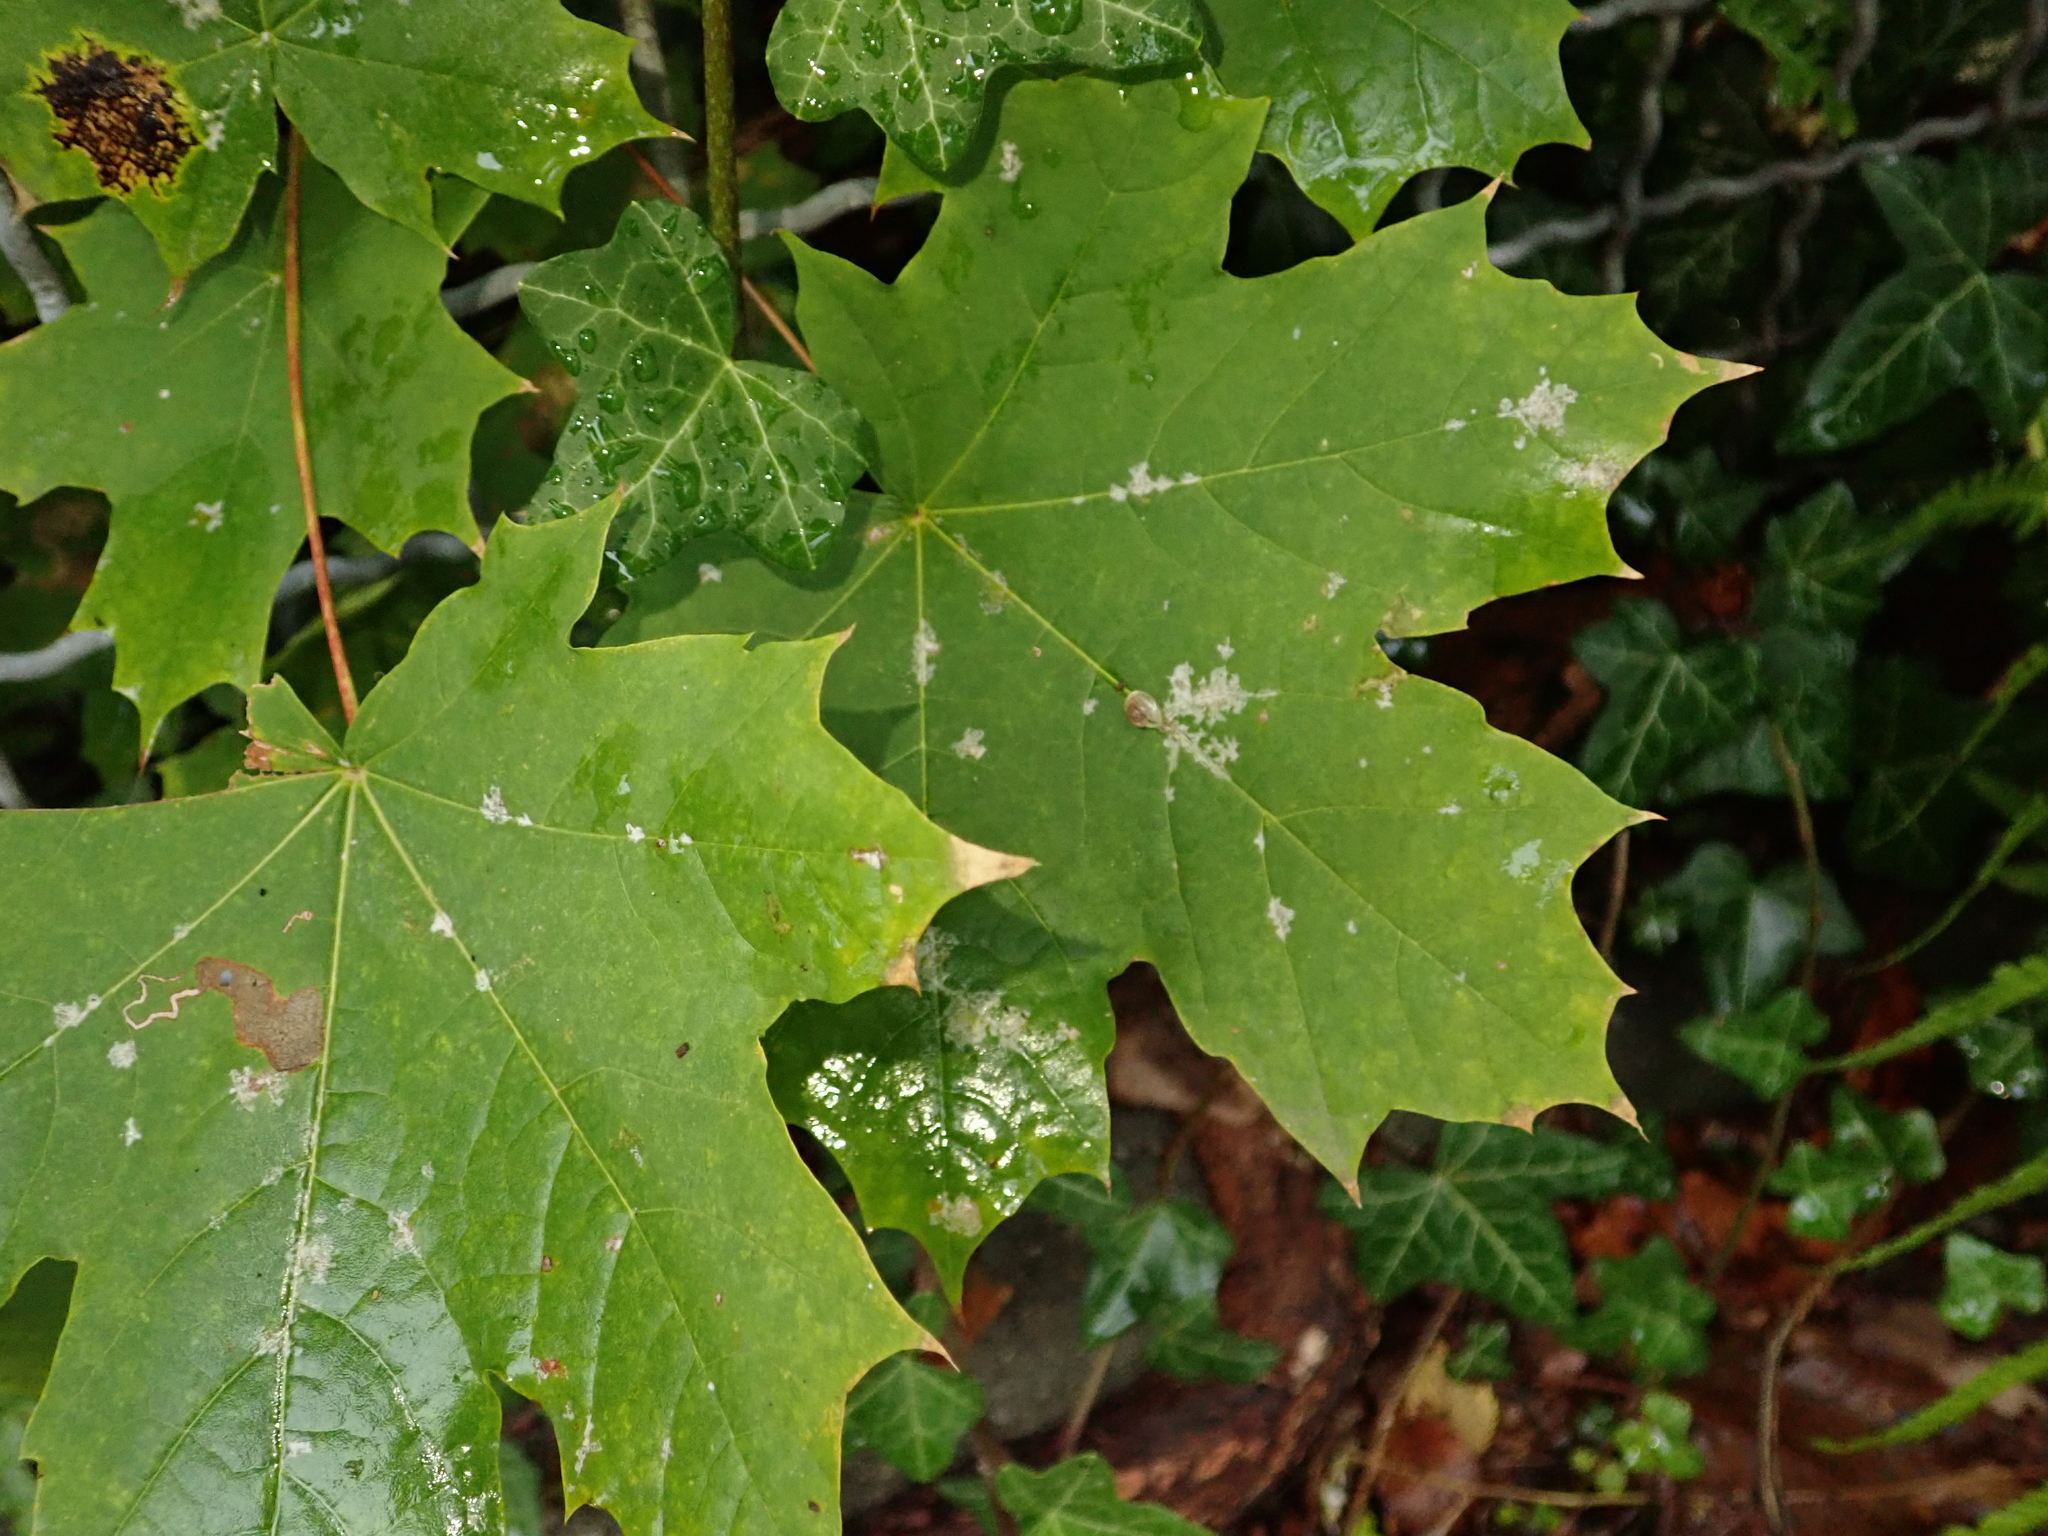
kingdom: Plantae
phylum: Tracheophyta
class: Magnoliopsida
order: Sapindales
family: Sapindaceae
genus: Acer
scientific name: Acer platanoides
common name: Norway maple
